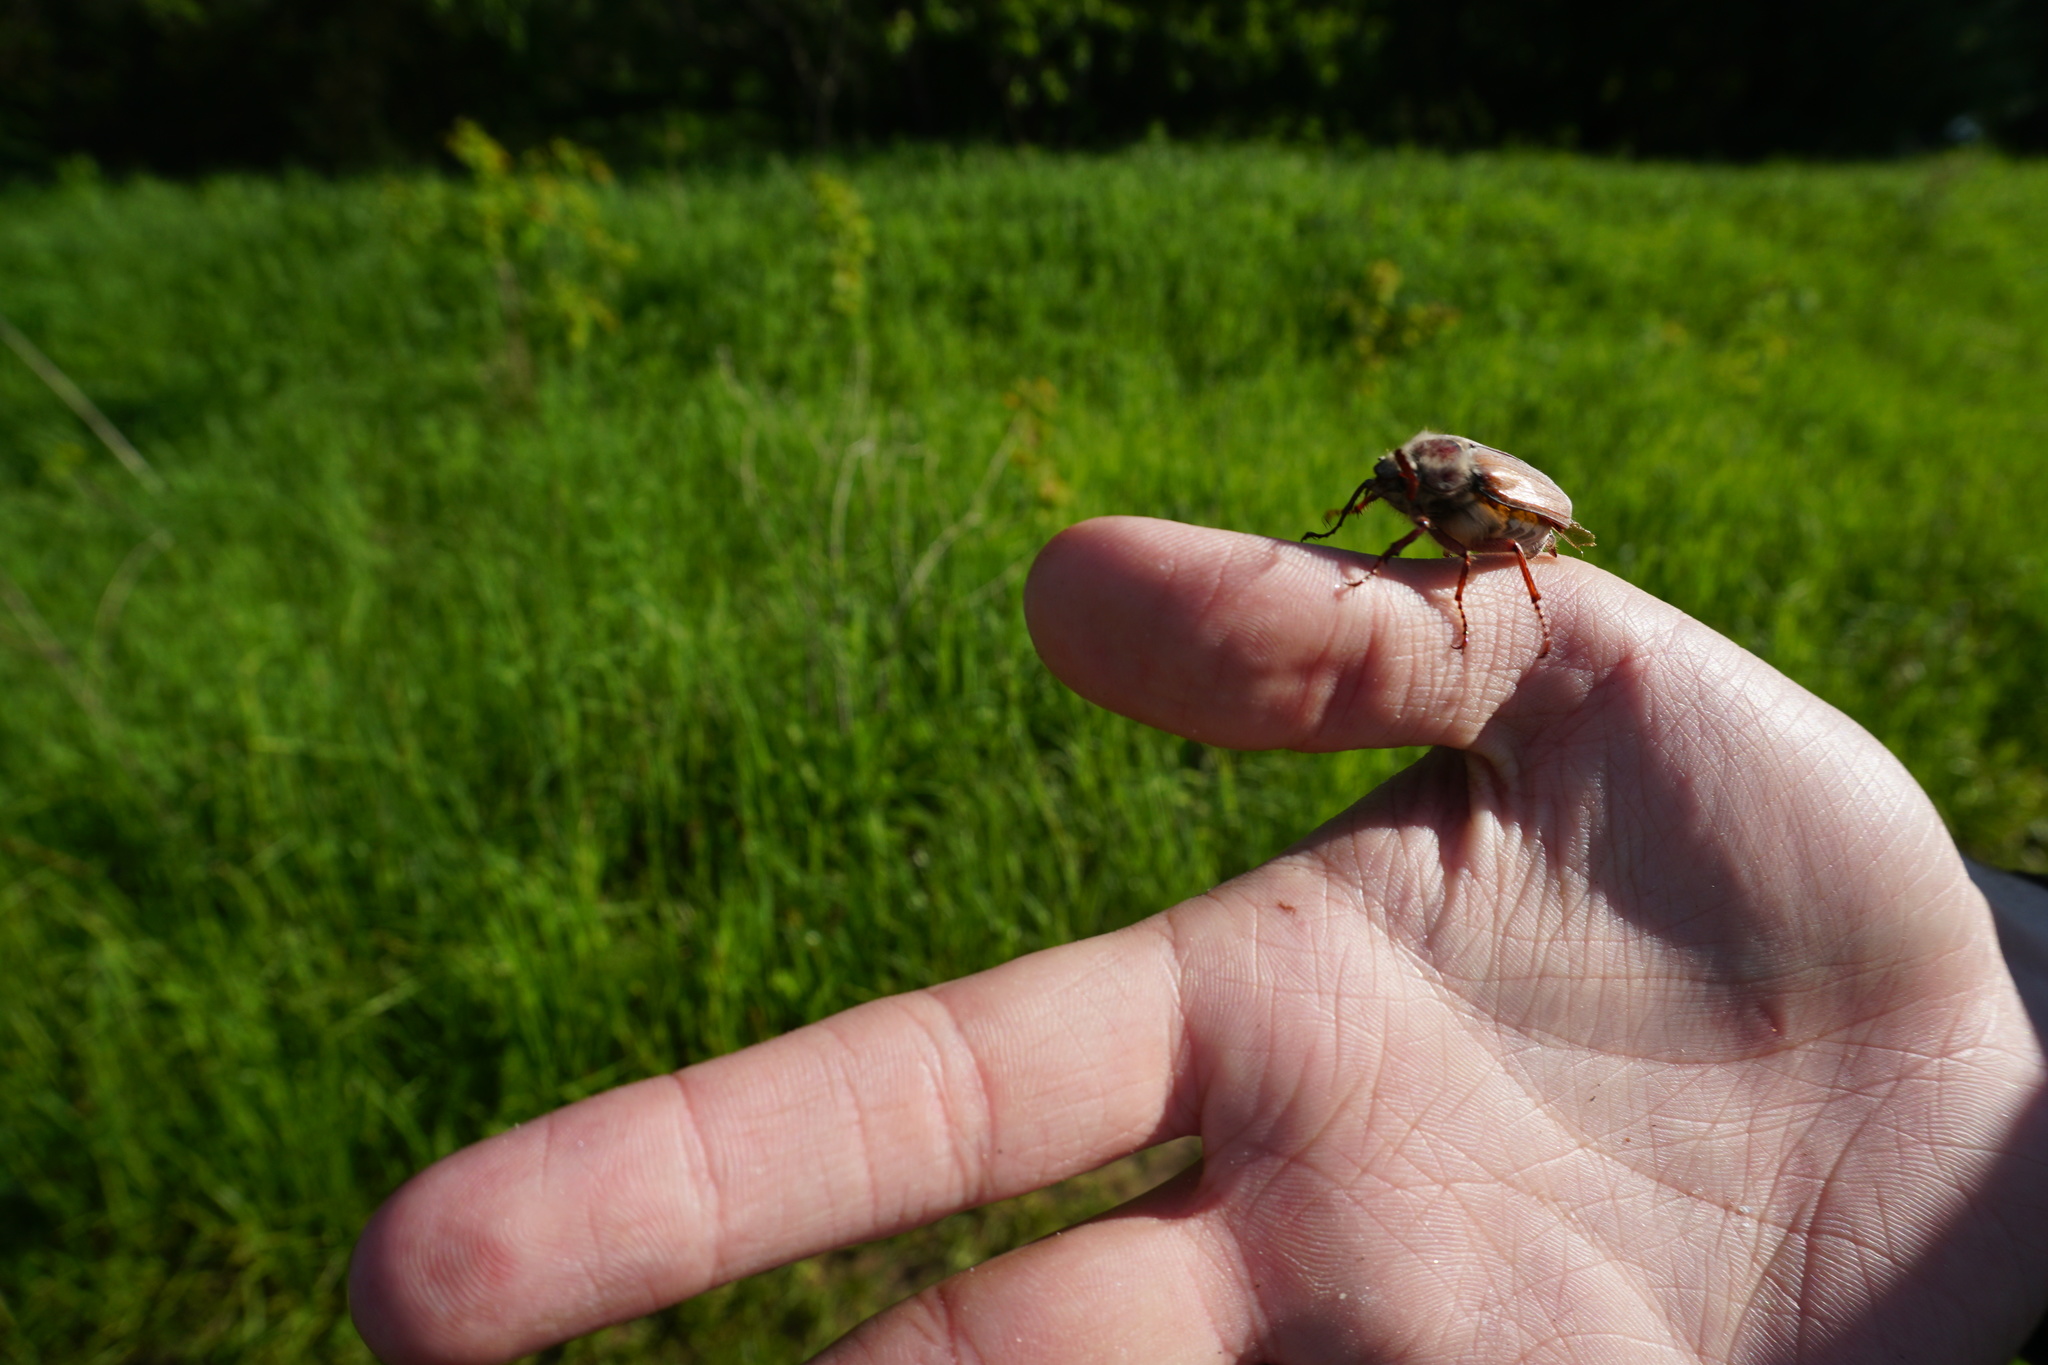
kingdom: Animalia
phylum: Arthropoda
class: Insecta
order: Coleoptera
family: Scarabaeidae
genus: Melolontha
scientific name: Melolontha hippocastani
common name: Chestnut cockchafer
